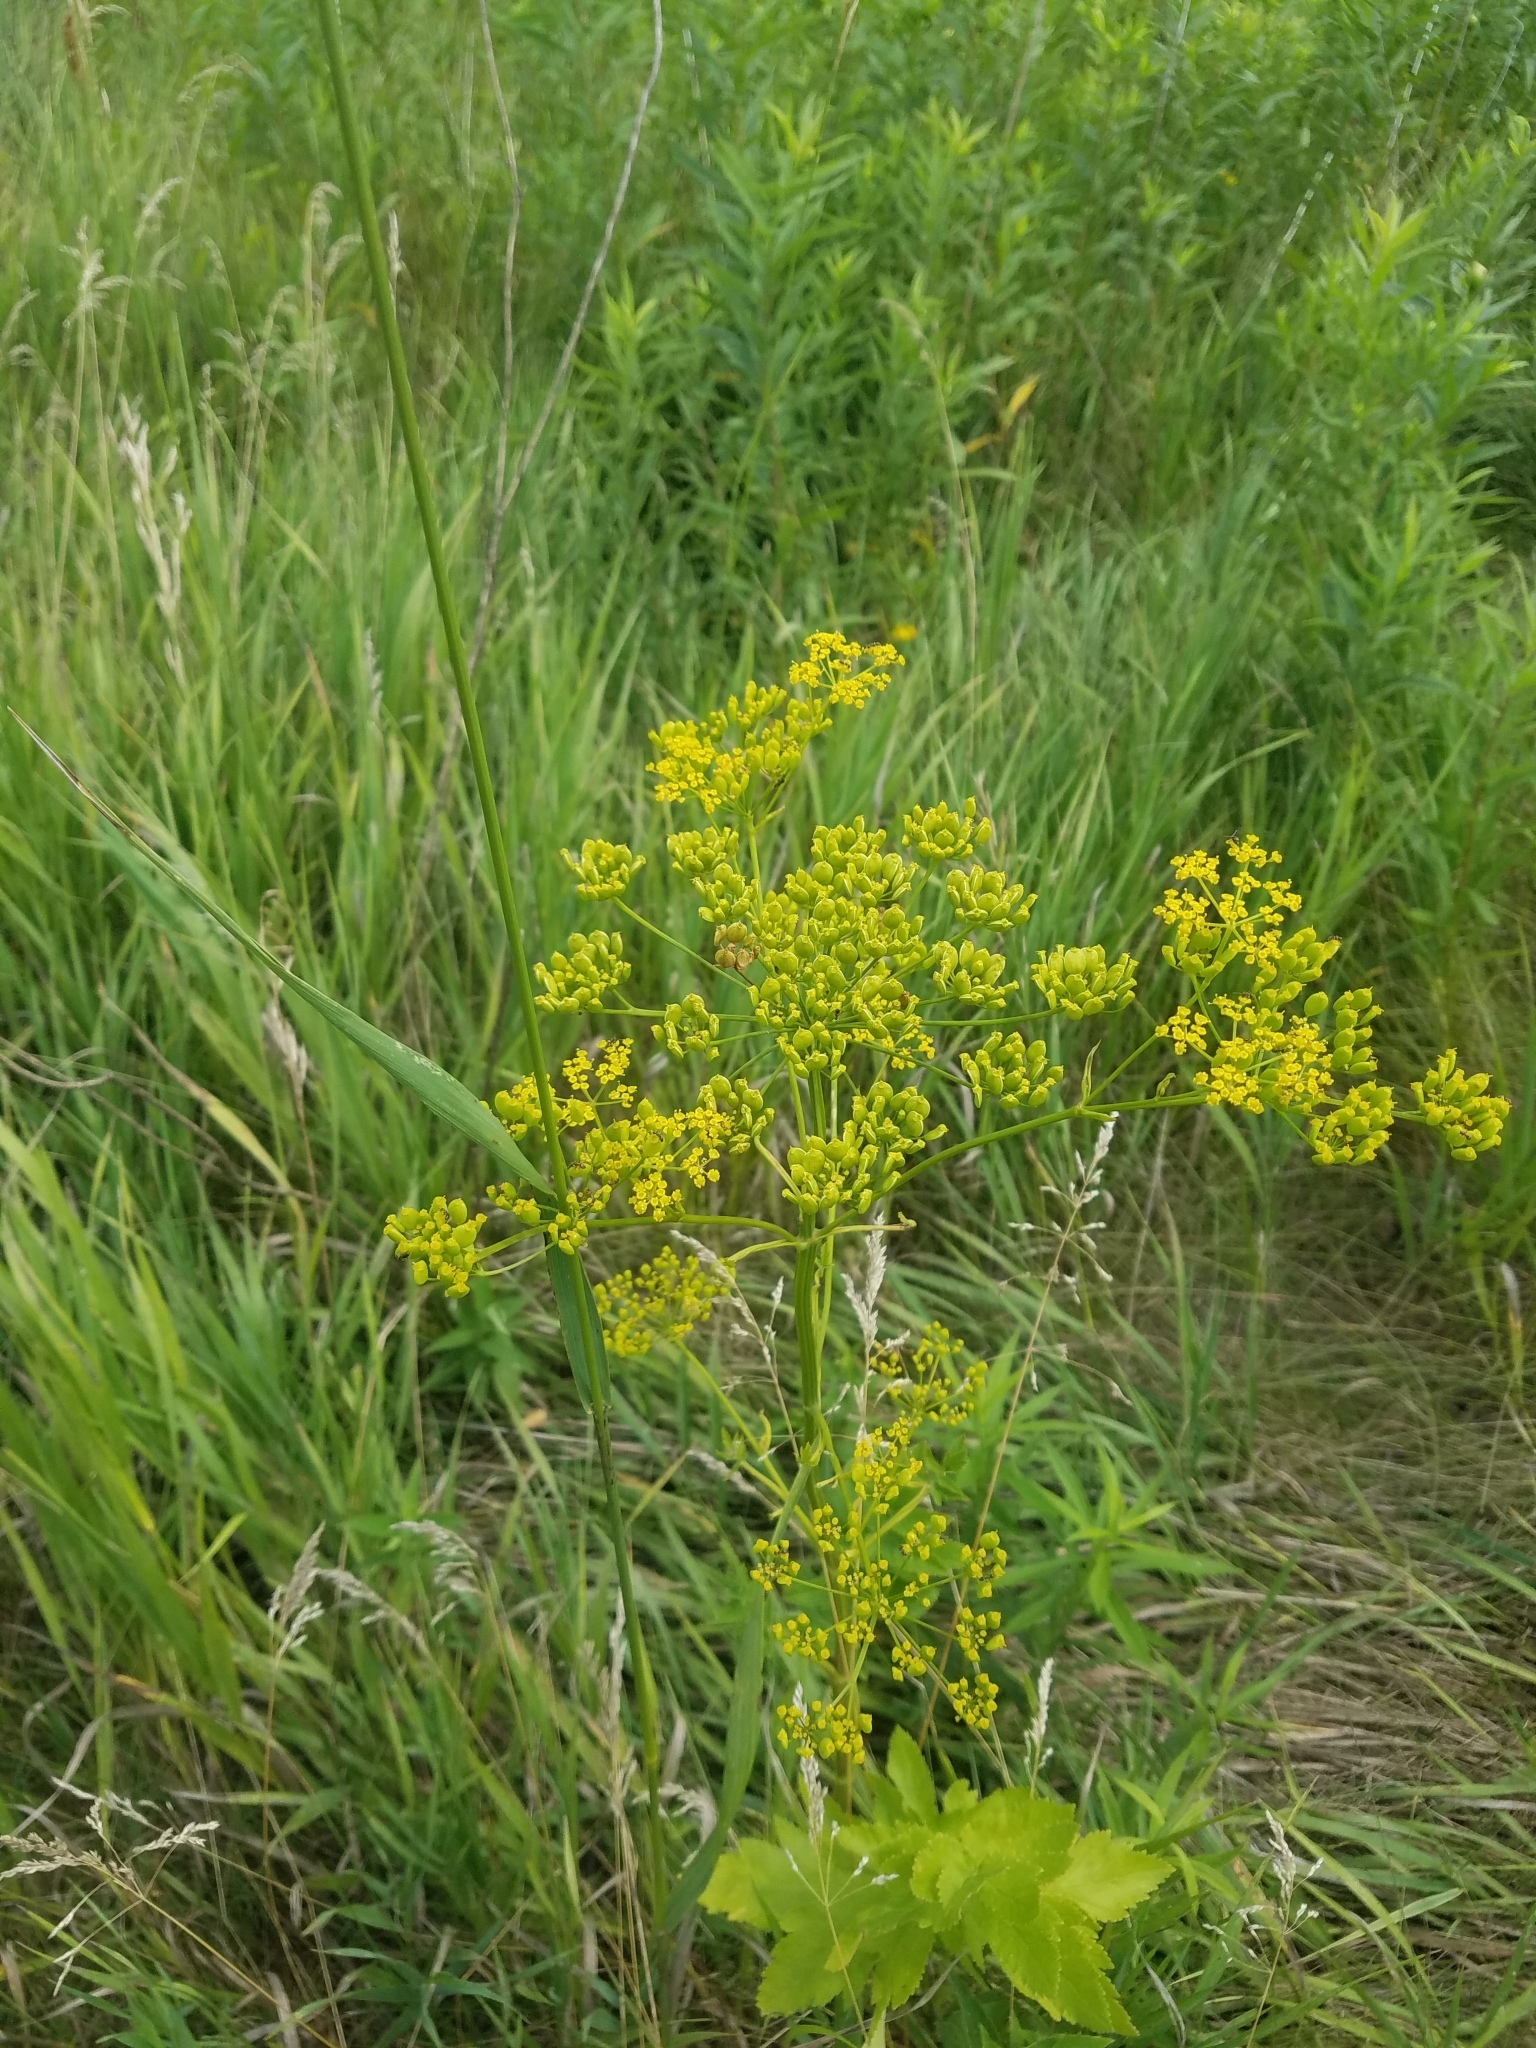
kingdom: Plantae
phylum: Tracheophyta
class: Magnoliopsida
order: Apiales
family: Apiaceae
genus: Pastinaca
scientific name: Pastinaca sativa
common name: Wild parsnip
